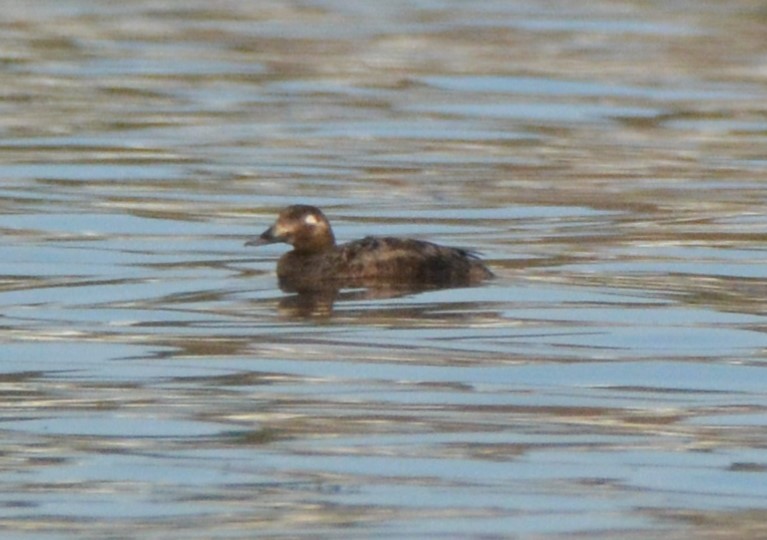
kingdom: Animalia
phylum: Chordata
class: Aves
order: Anseriformes
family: Anatidae
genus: Melanitta
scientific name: Melanitta deglandi
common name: White-winged scoter
